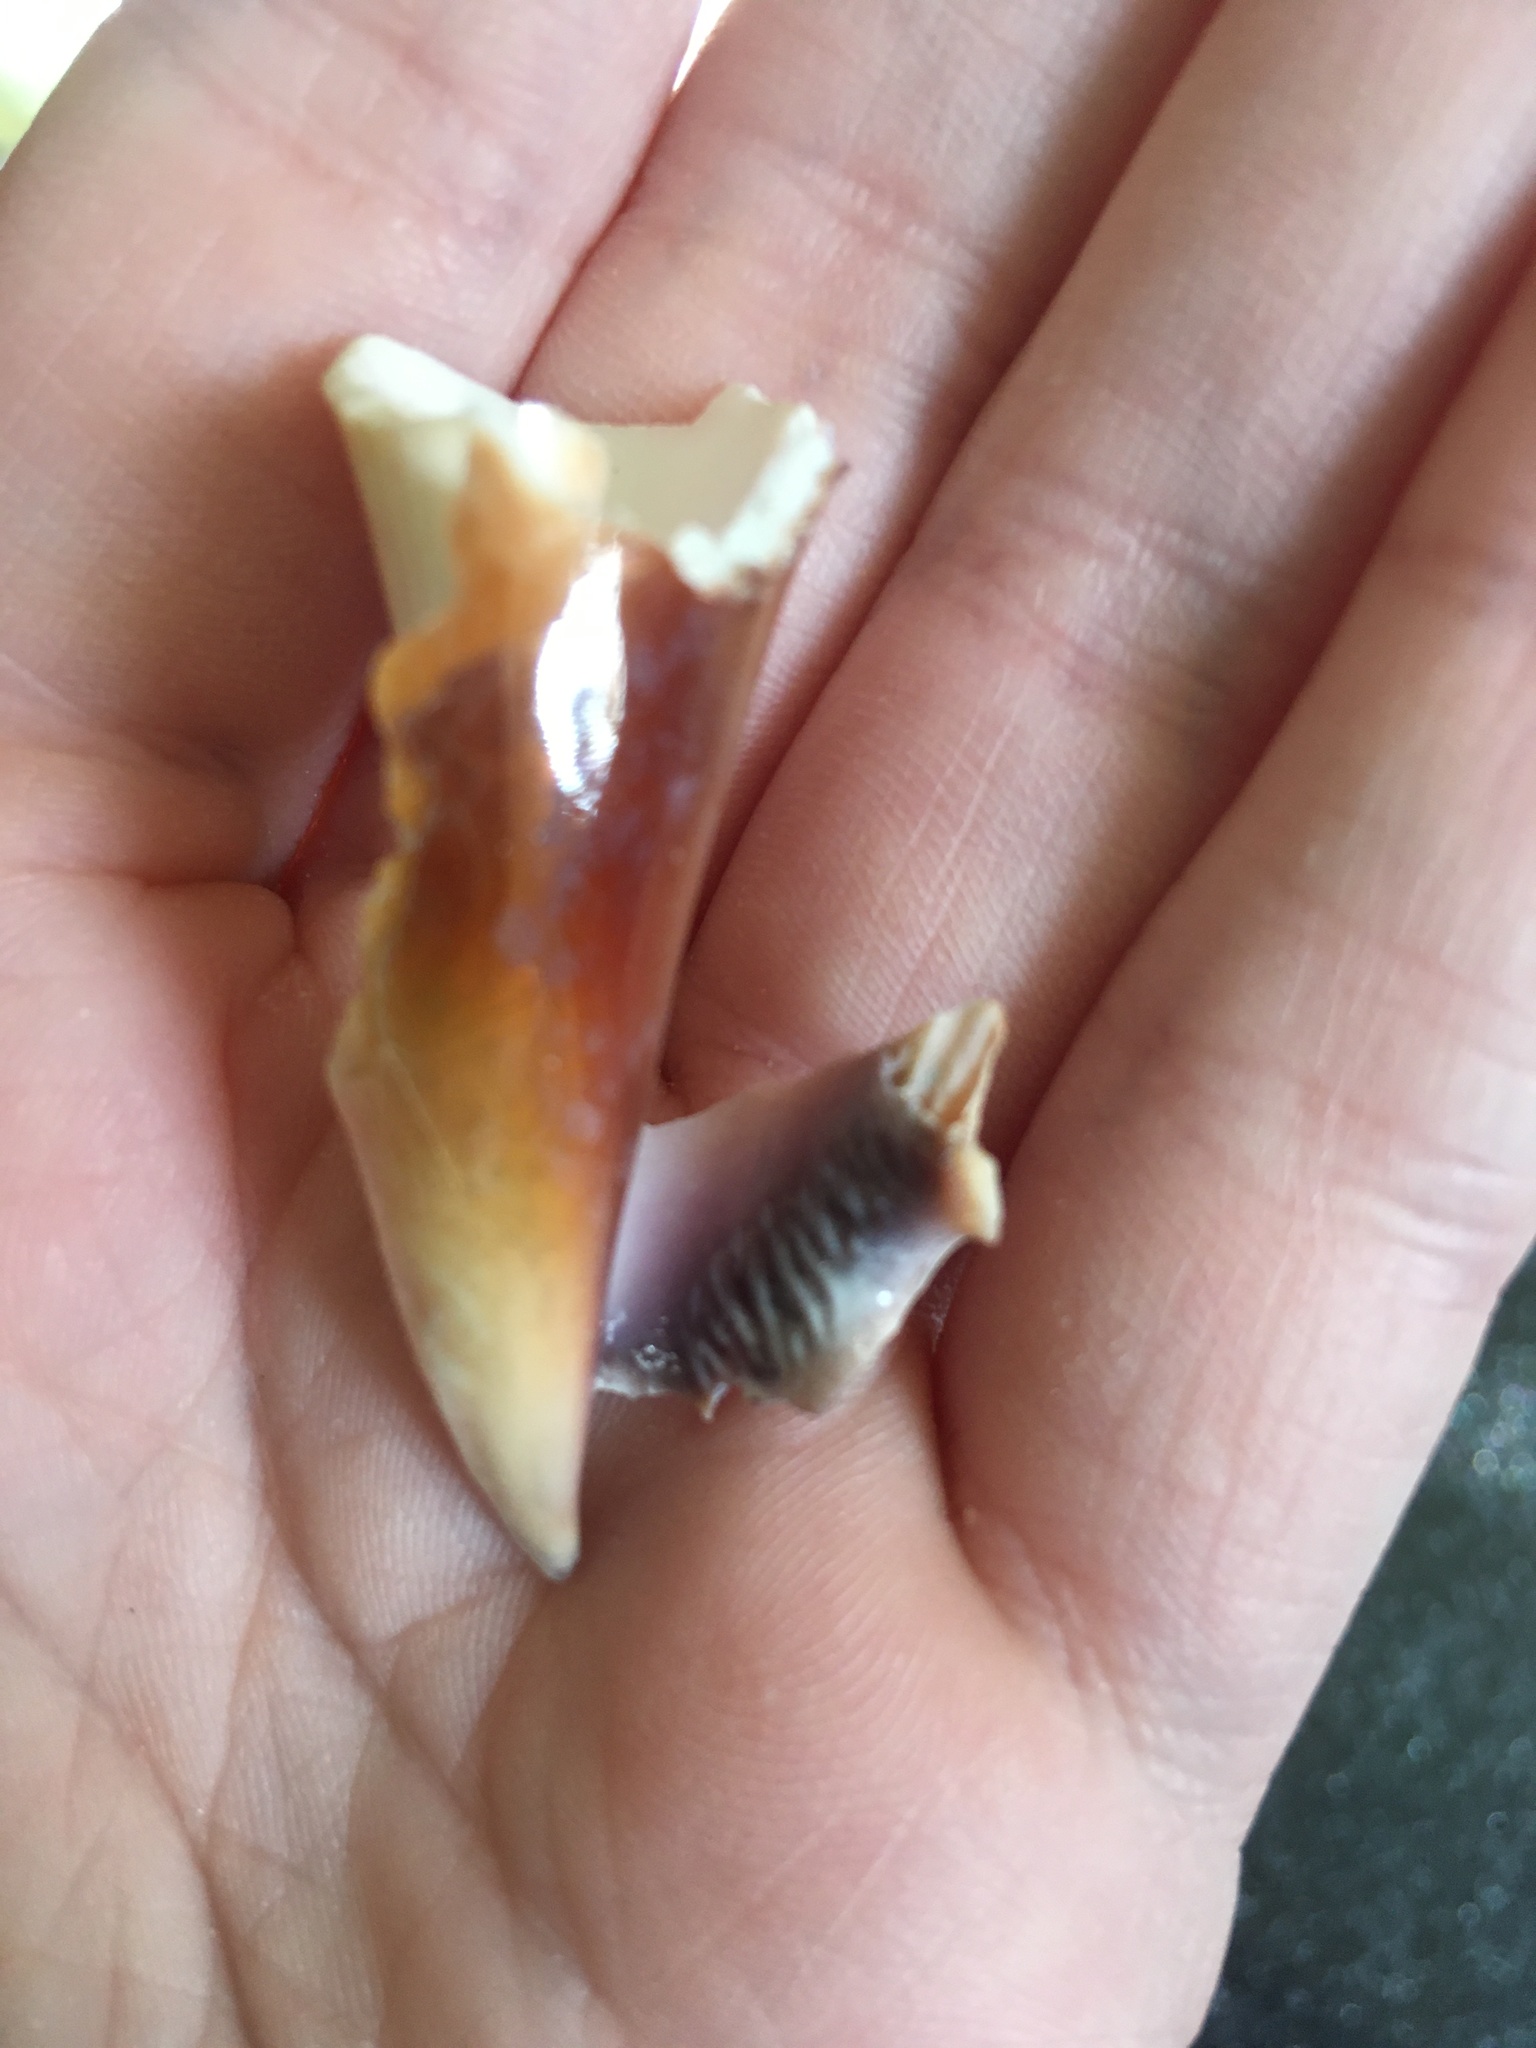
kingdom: Animalia
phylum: Mollusca
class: Gastropoda
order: Littorinimorpha
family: Strombidae
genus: Strombus
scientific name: Strombus alatus
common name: Florida fighting conch
